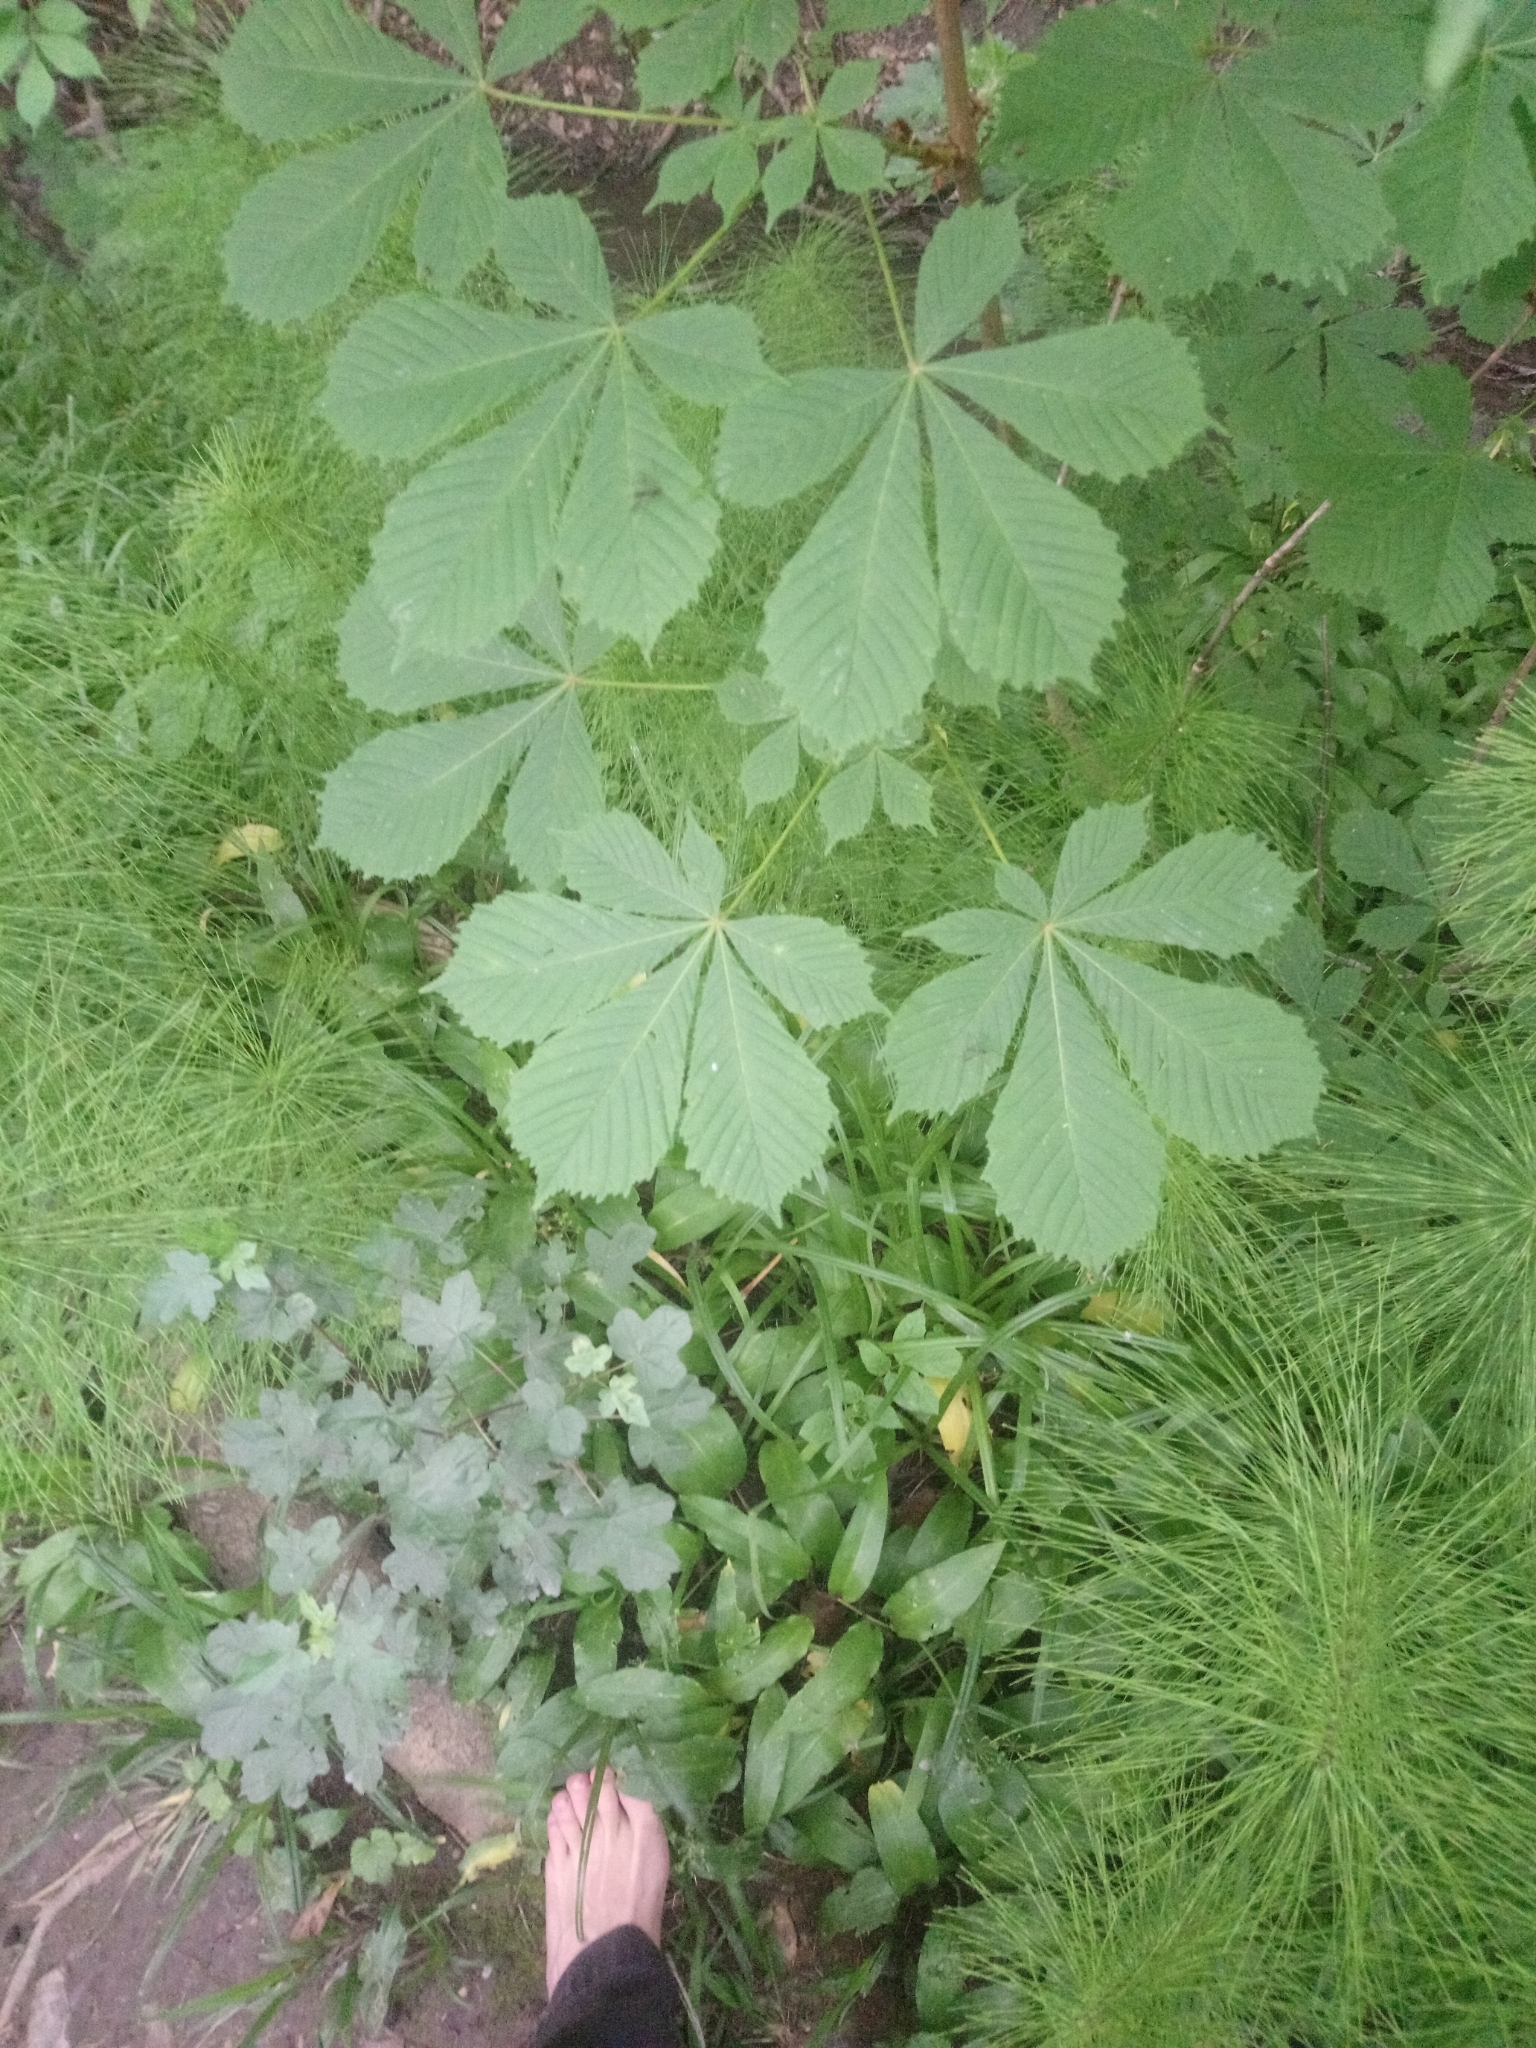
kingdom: Plantae
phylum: Tracheophyta
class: Magnoliopsida
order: Sapindales
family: Sapindaceae
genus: Aesculus
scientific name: Aesculus hippocastanum
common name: Horse-chestnut
